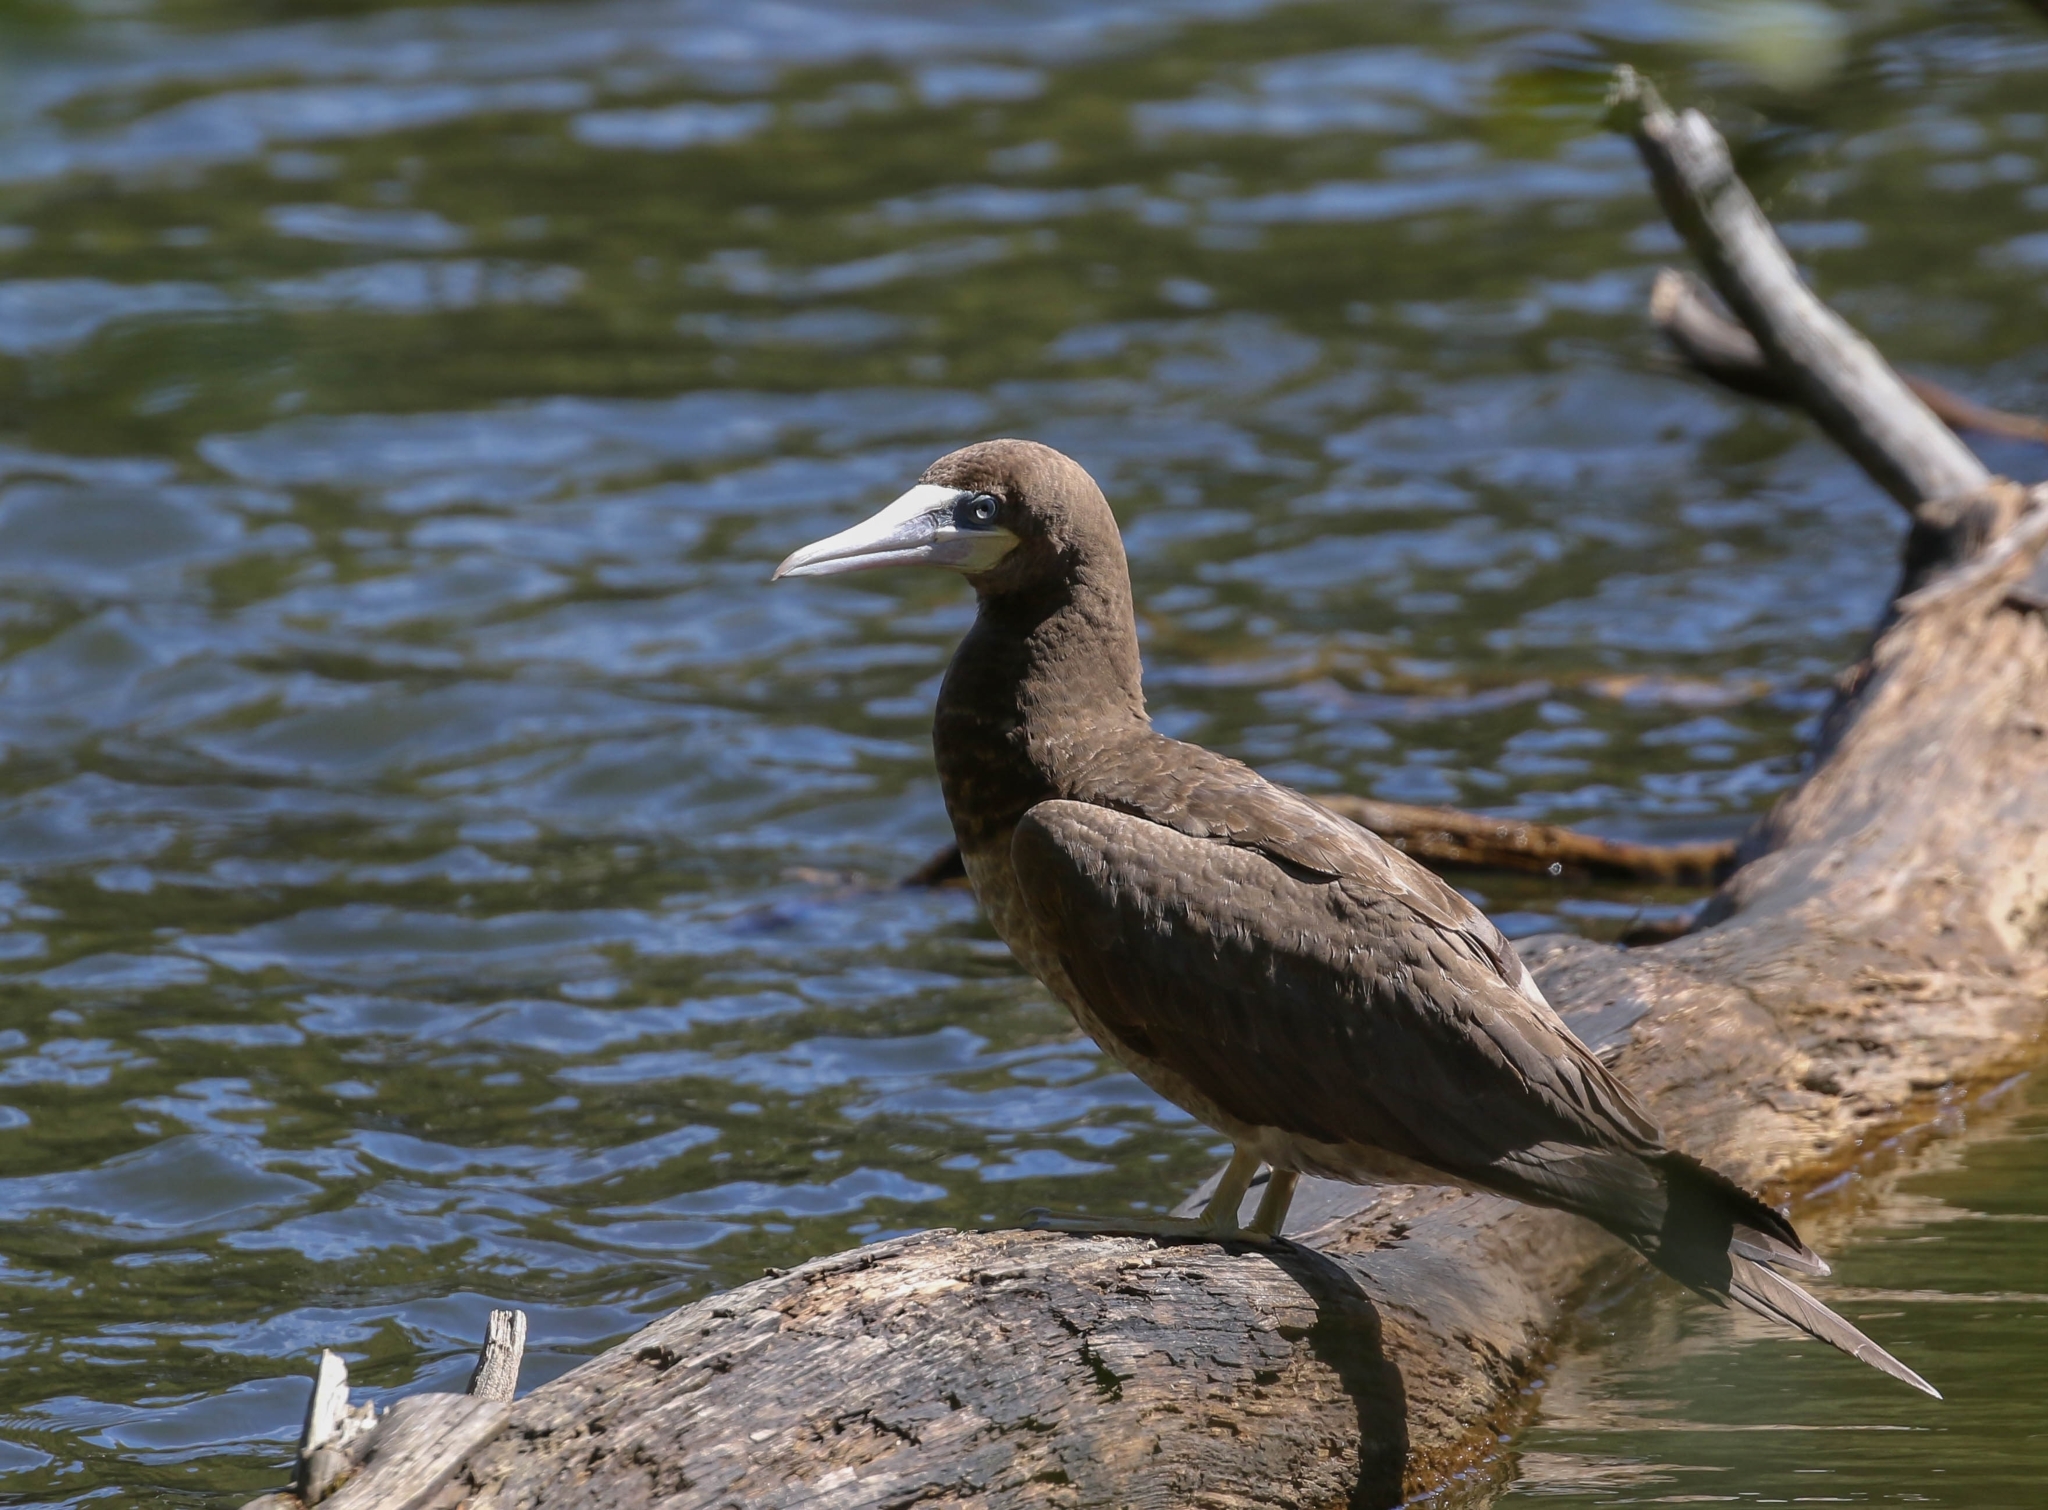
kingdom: Animalia
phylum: Chordata
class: Aves
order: Suliformes
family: Sulidae
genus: Sula
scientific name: Sula leucogaster
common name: Brown booby
